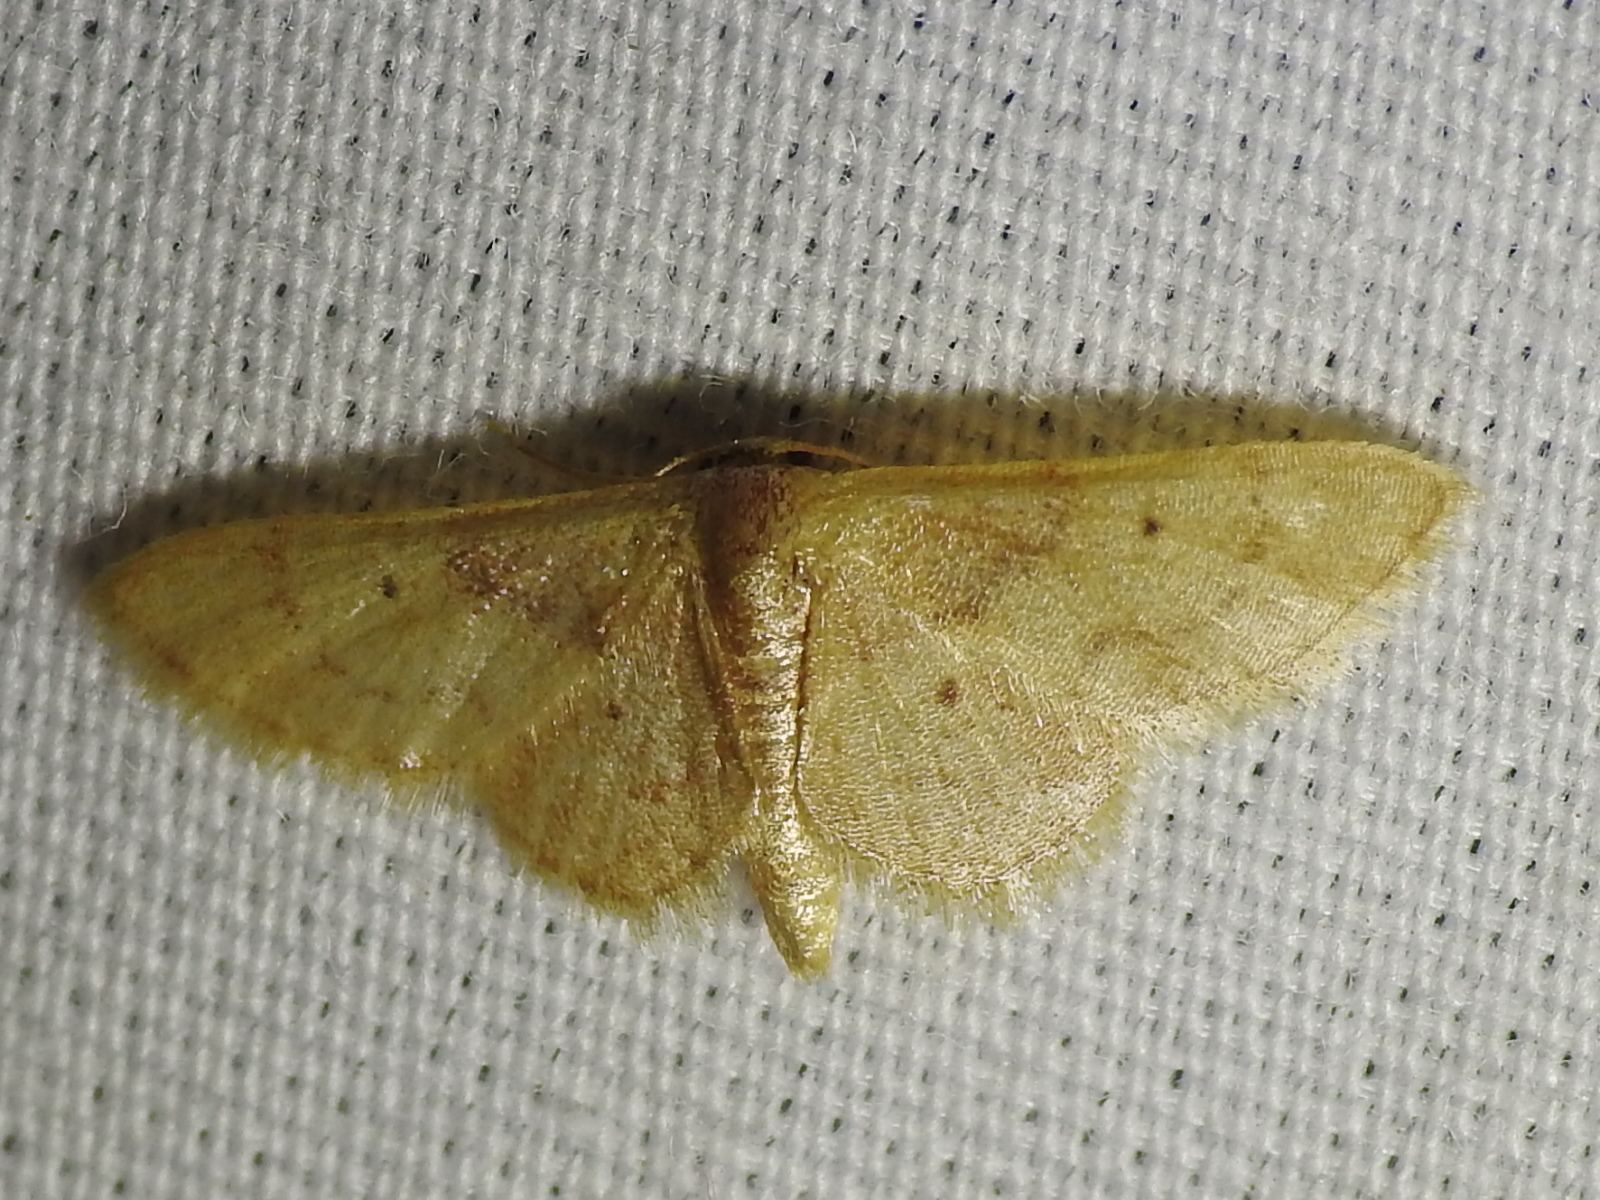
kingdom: Animalia
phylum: Arthropoda
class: Insecta
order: Lepidoptera
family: Geometridae
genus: Idaea
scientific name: Idaea demissaria
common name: Red-bordered wave
